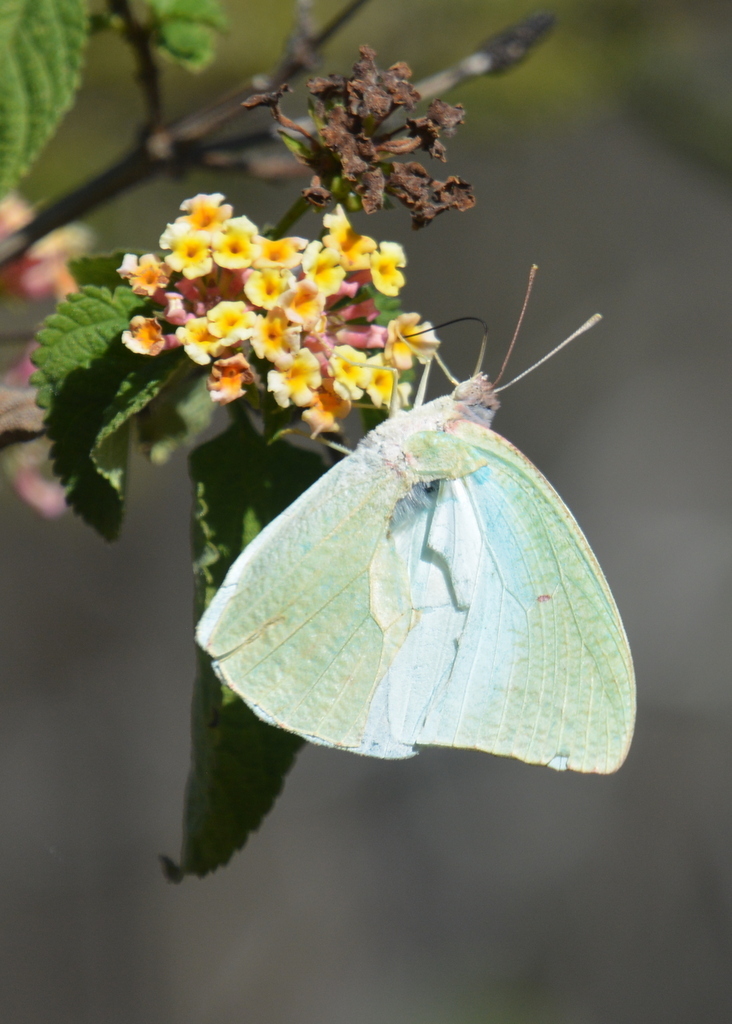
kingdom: Animalia
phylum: Arthropoda
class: Insecta
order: Lepidoptera
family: Pieridae
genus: Catopsilia
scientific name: Catopsilia florella
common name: African migrant
